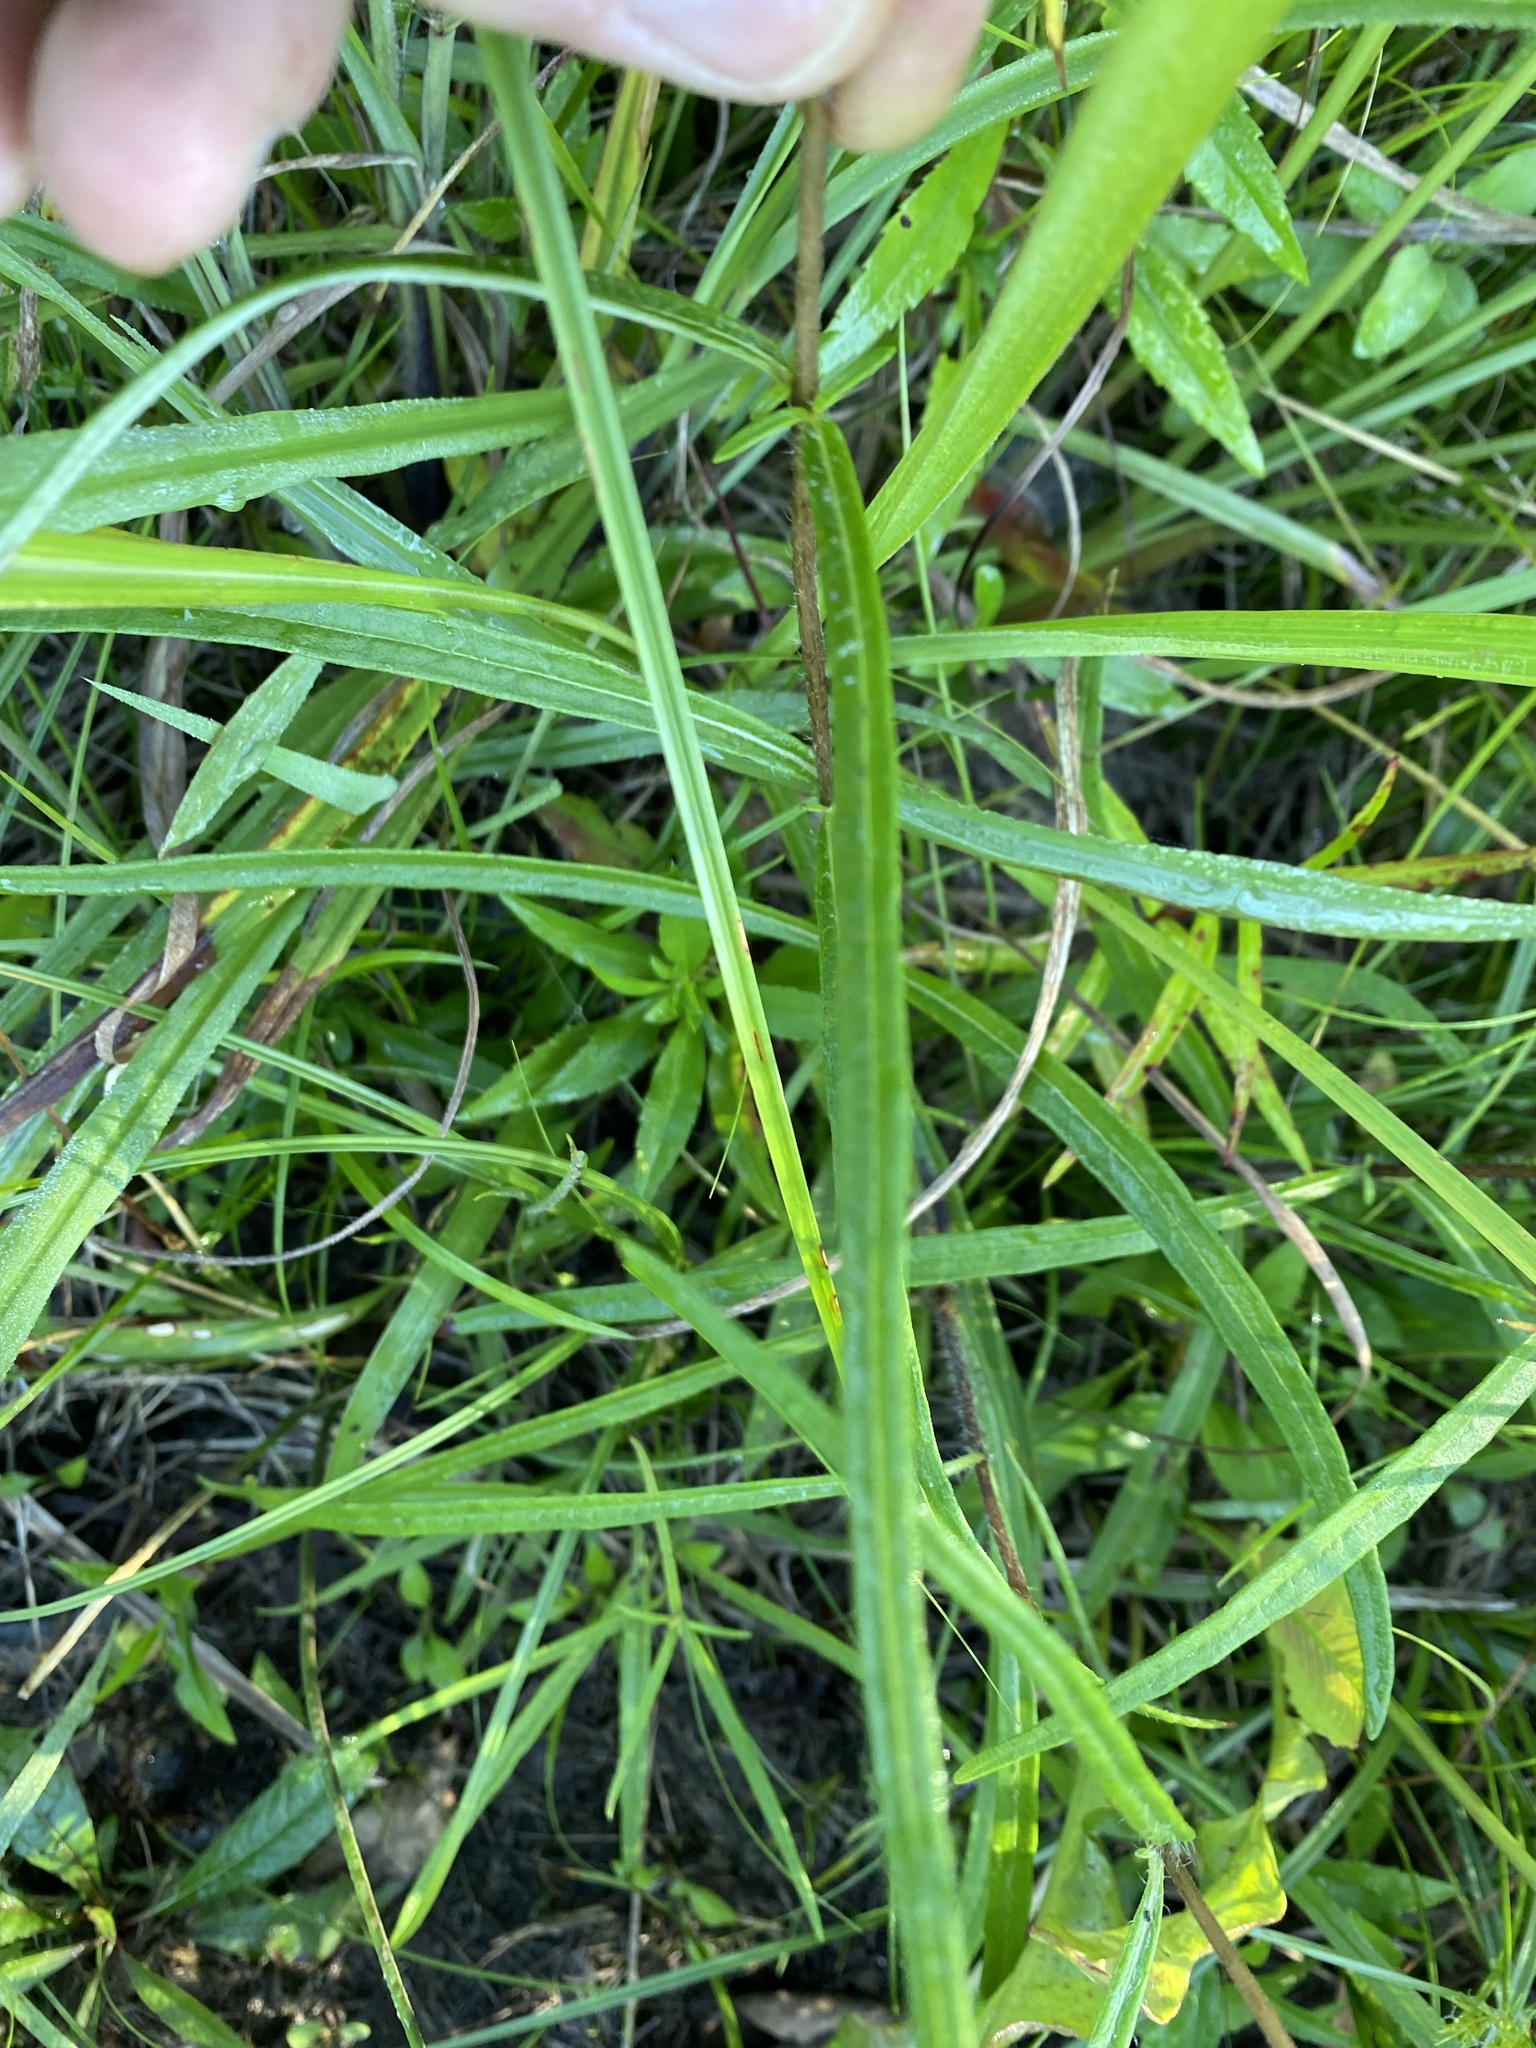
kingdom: Plantae
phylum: Tracheophyta
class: Magnoliopsida
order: Asterales
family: Asteraceae
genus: Helianthus
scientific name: Helianthus angustifolius
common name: Swamp sunflower
